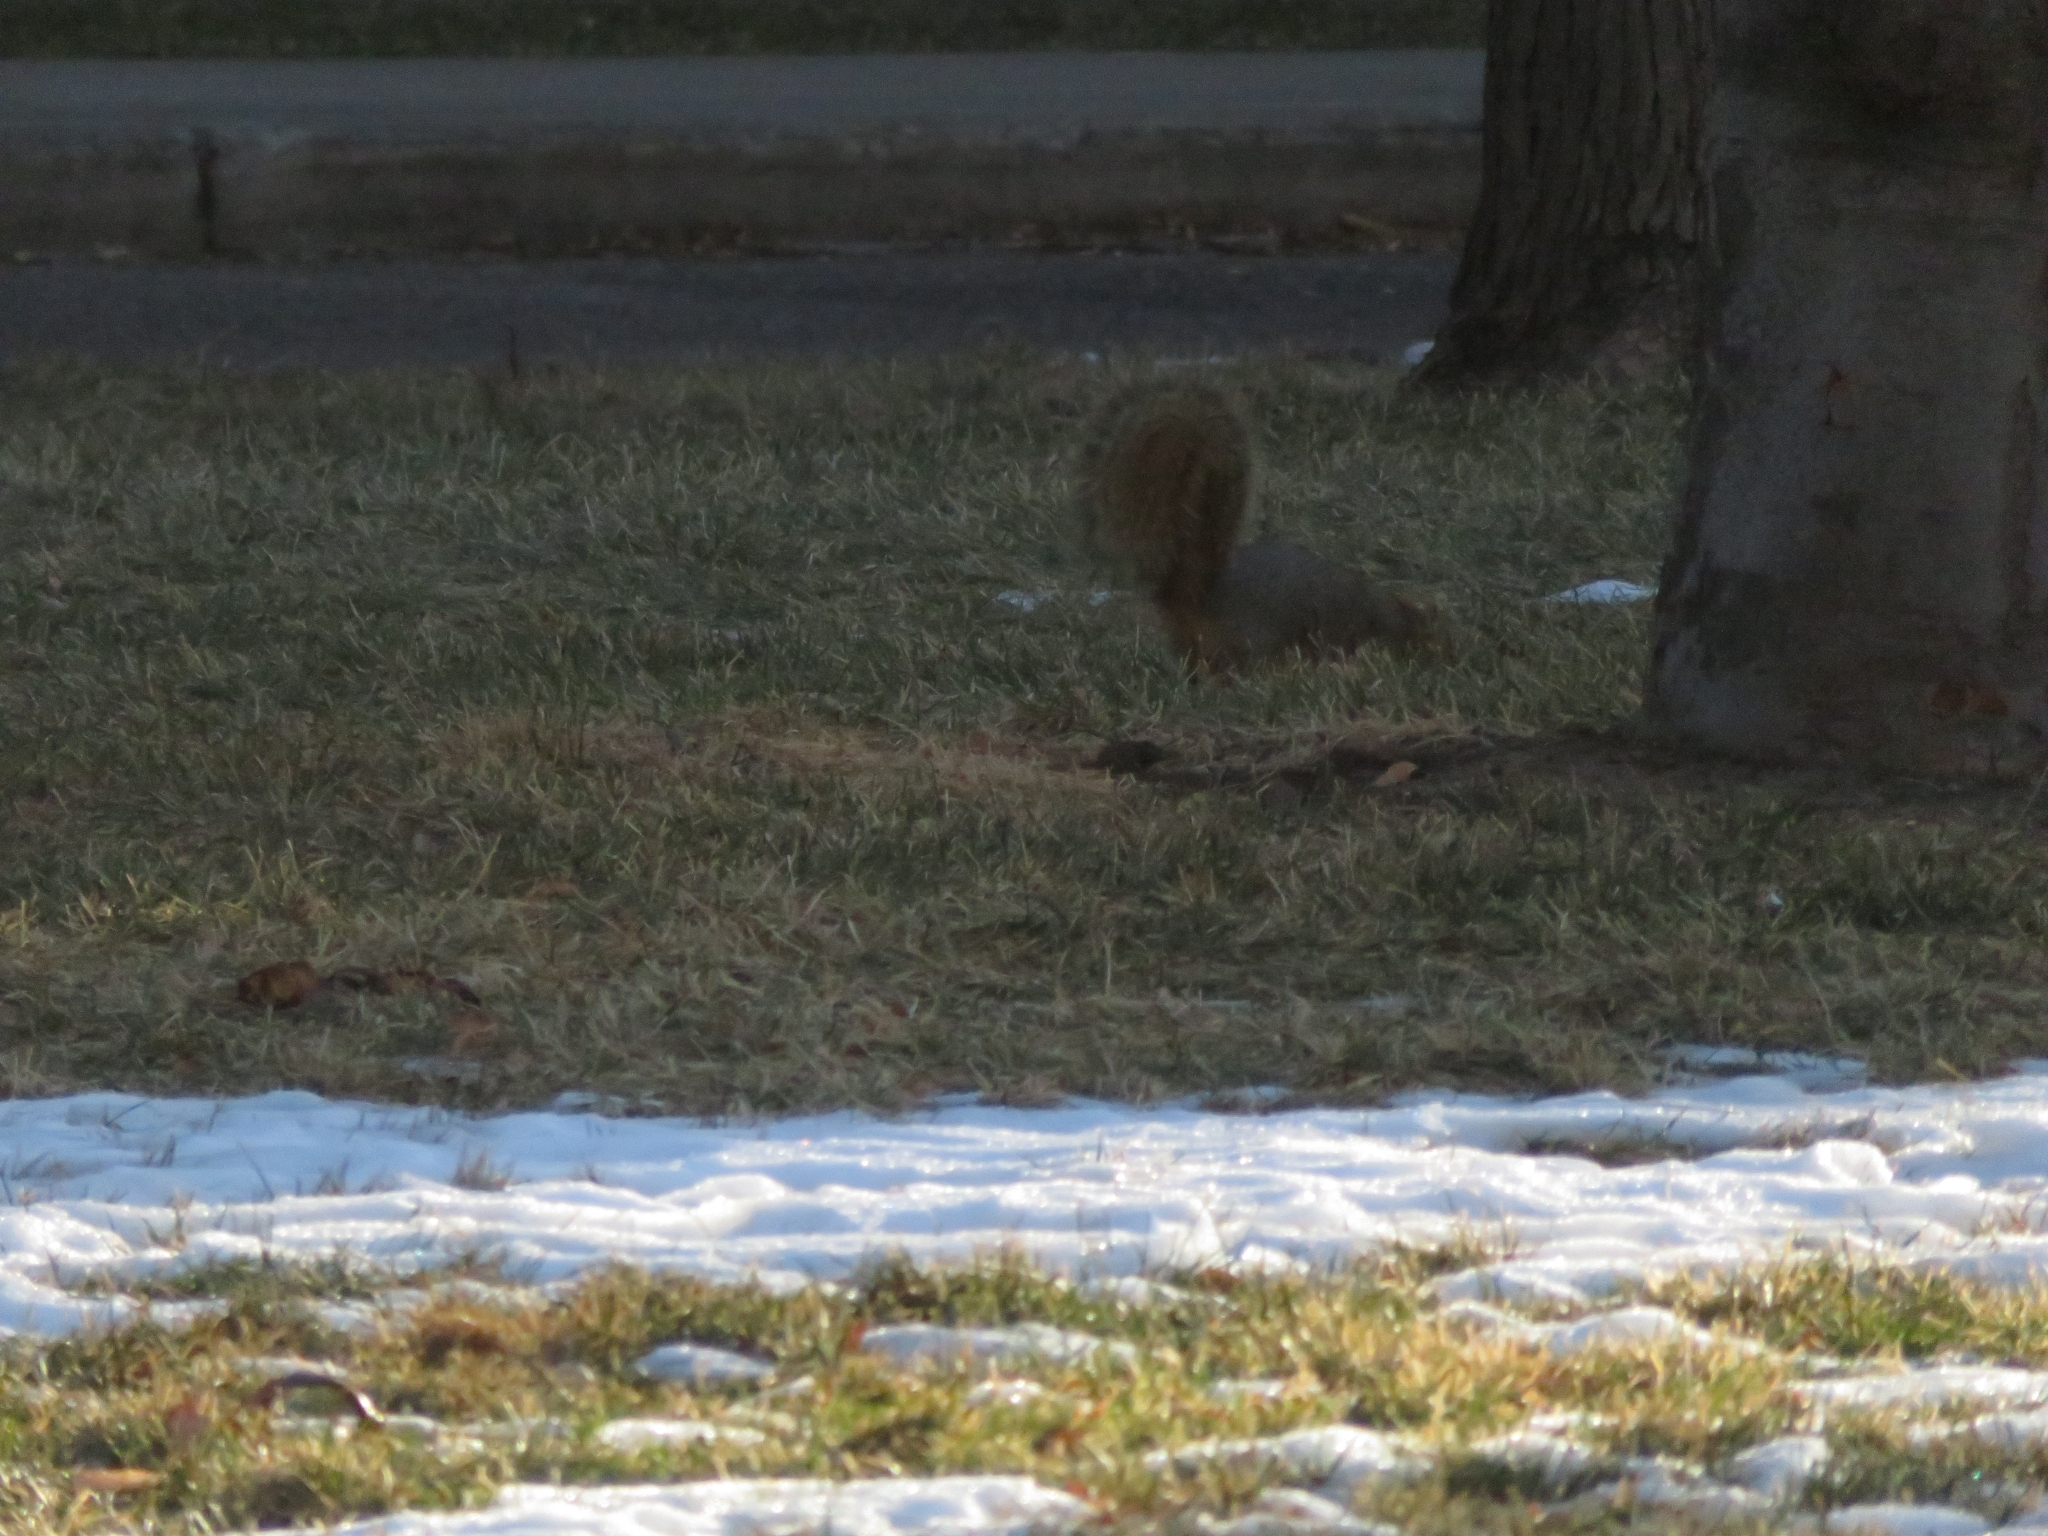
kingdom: Animalia
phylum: Chordata
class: Mammalia
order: Rodentia
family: Sciuridae
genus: Sciurus
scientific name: Sciurus niger
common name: Fox squirrel
